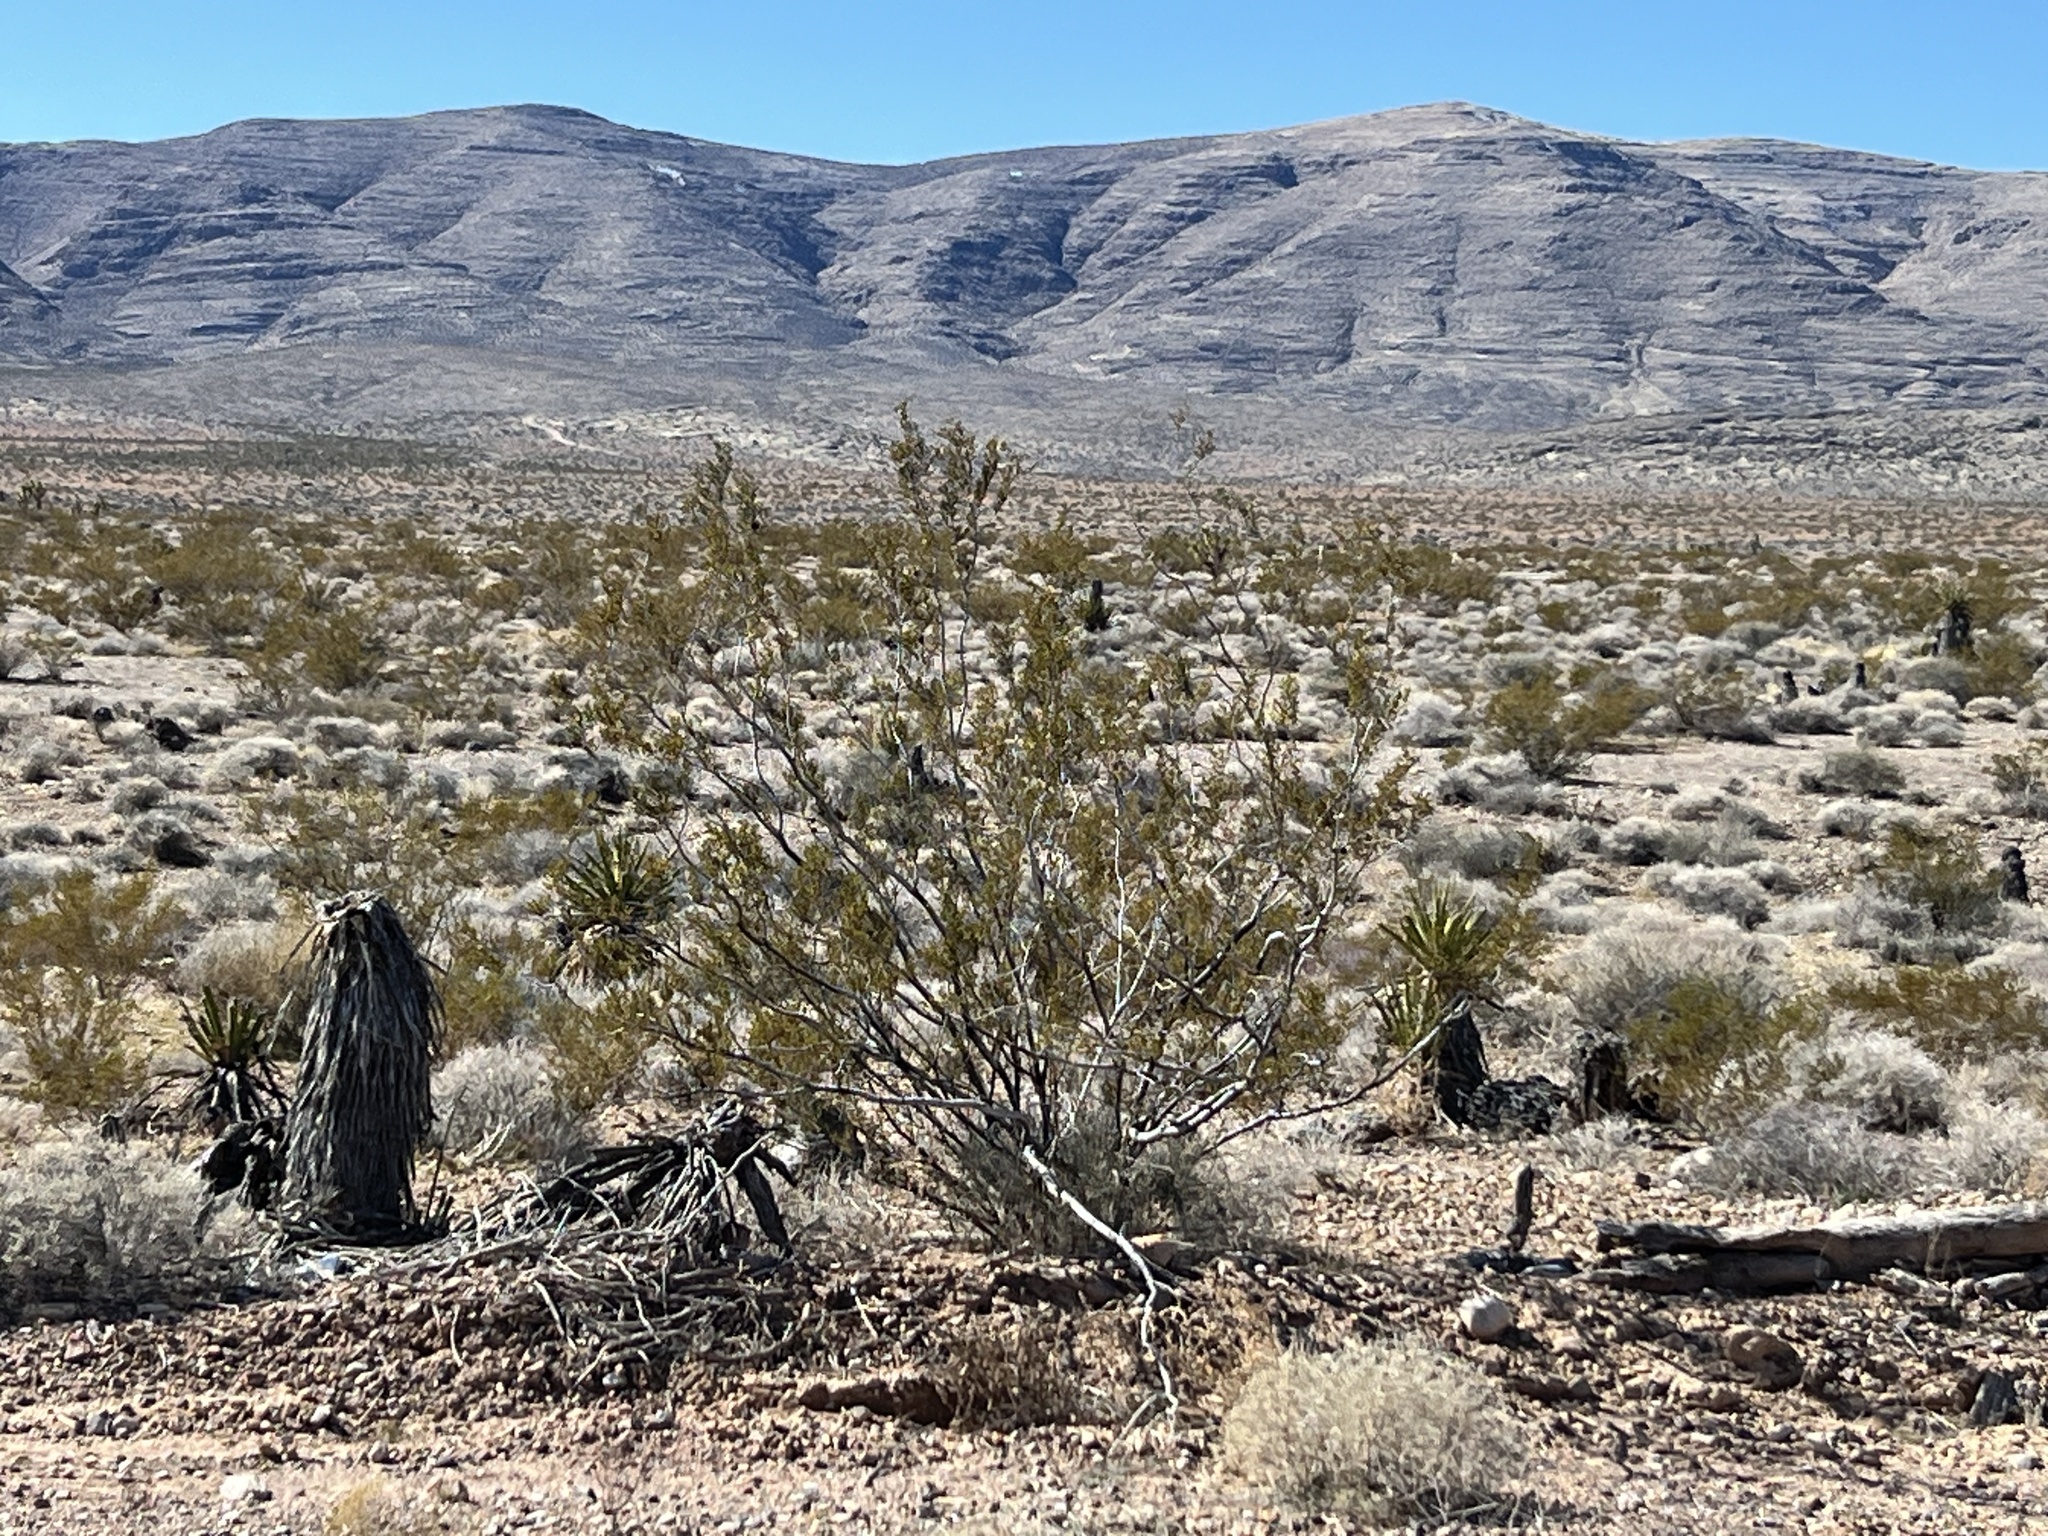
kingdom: Plantae
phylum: Tracheophyta
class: Magnoliopsida
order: Zygophyllales
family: Zygophyllaceae
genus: Larrea
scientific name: Larrea tridentata
